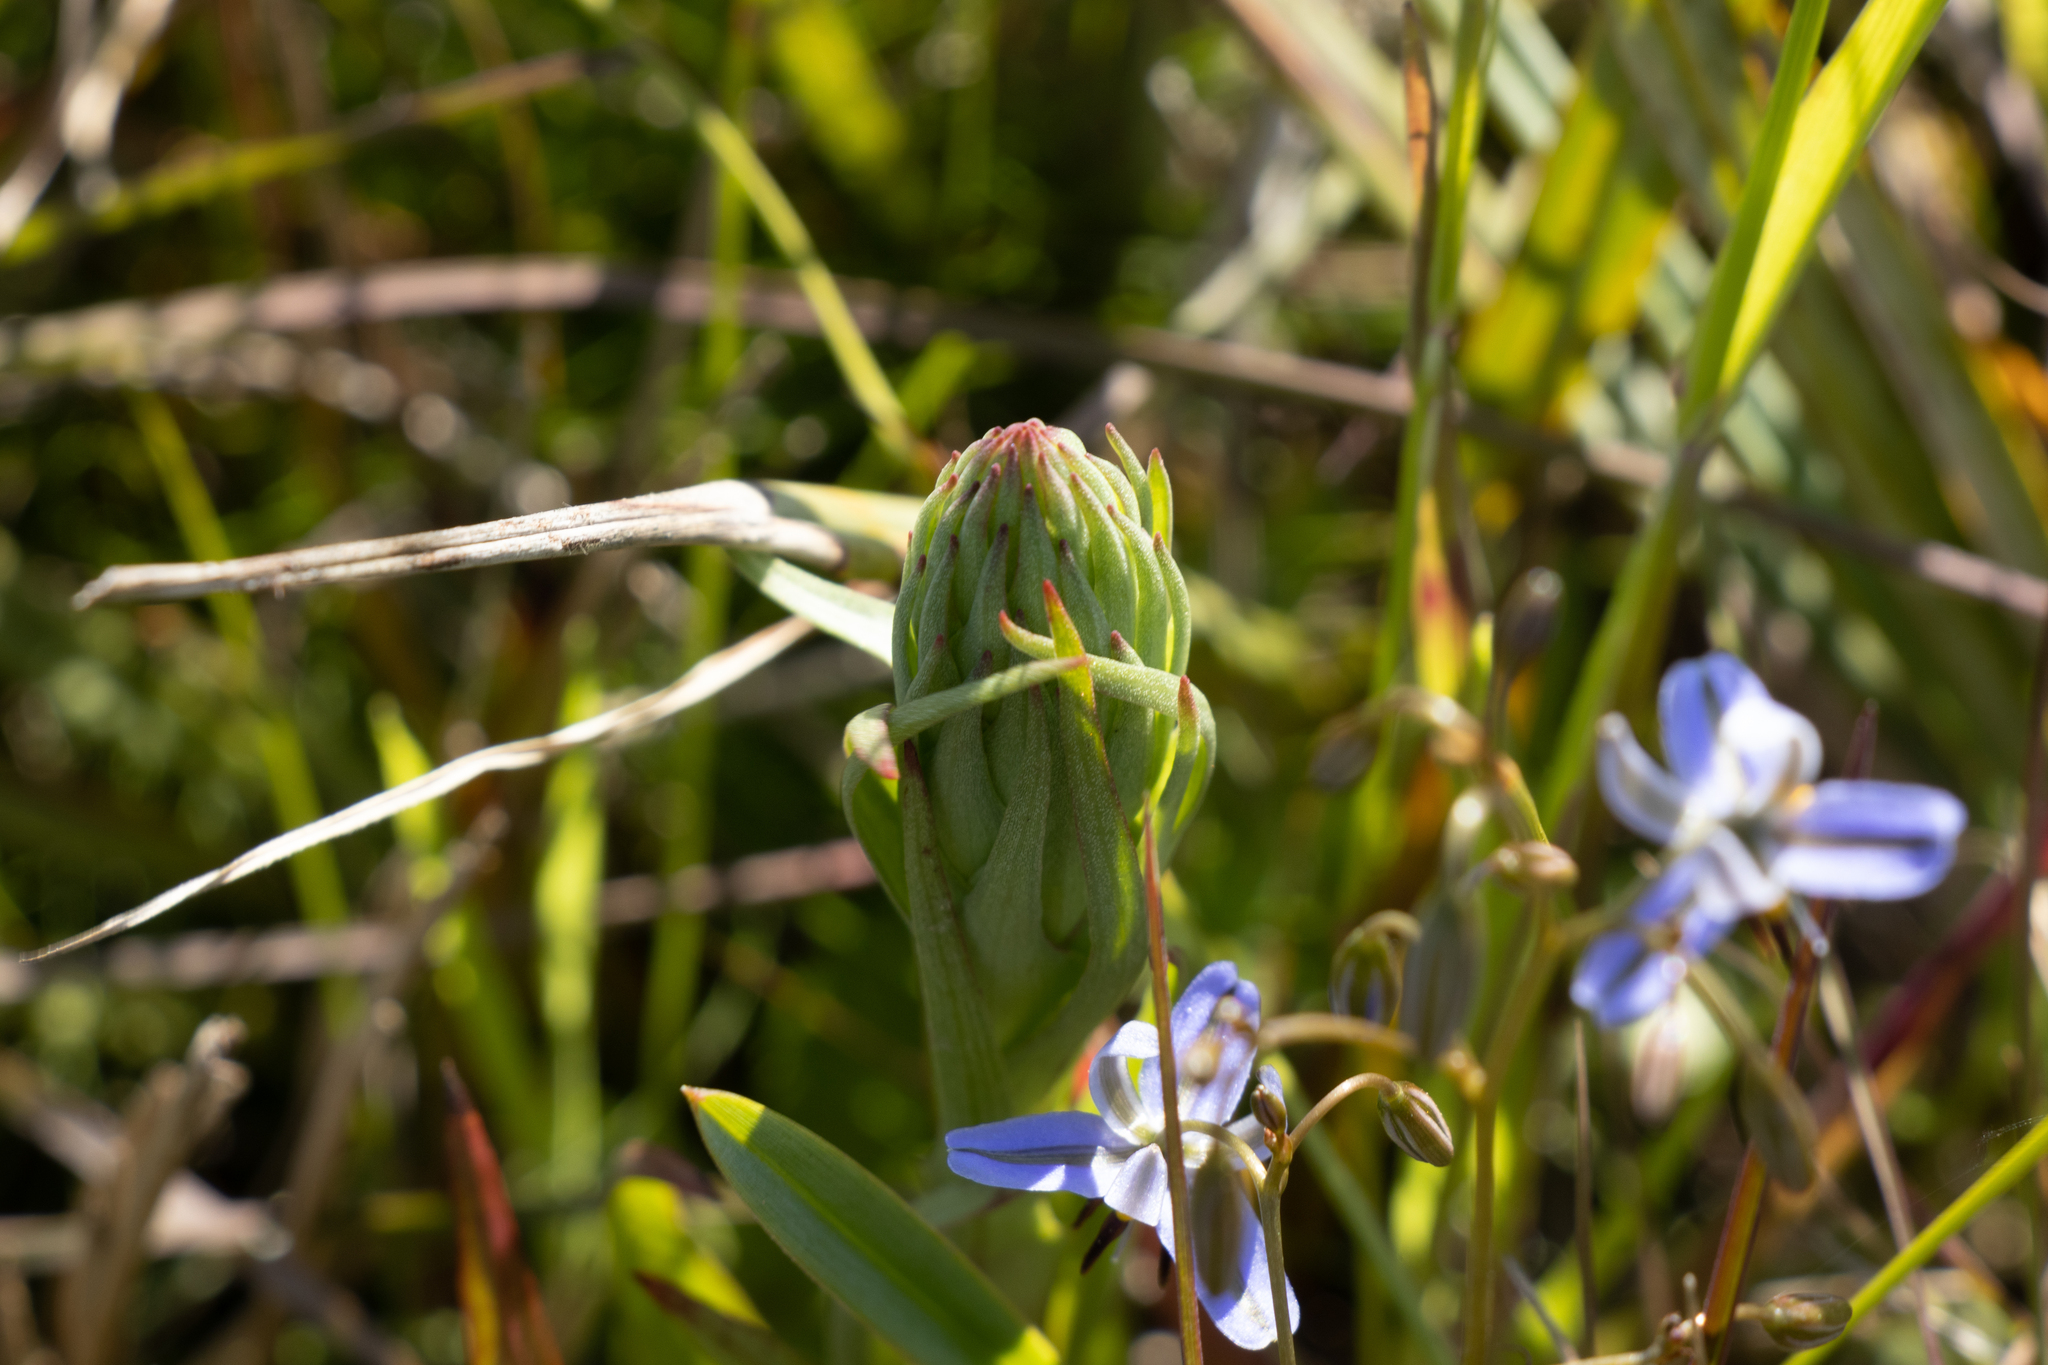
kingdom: Plantae
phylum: Tracheophyta
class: Liliopsida
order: Asparagales
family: Orchidaceae
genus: Disa
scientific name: Disa bracteata
